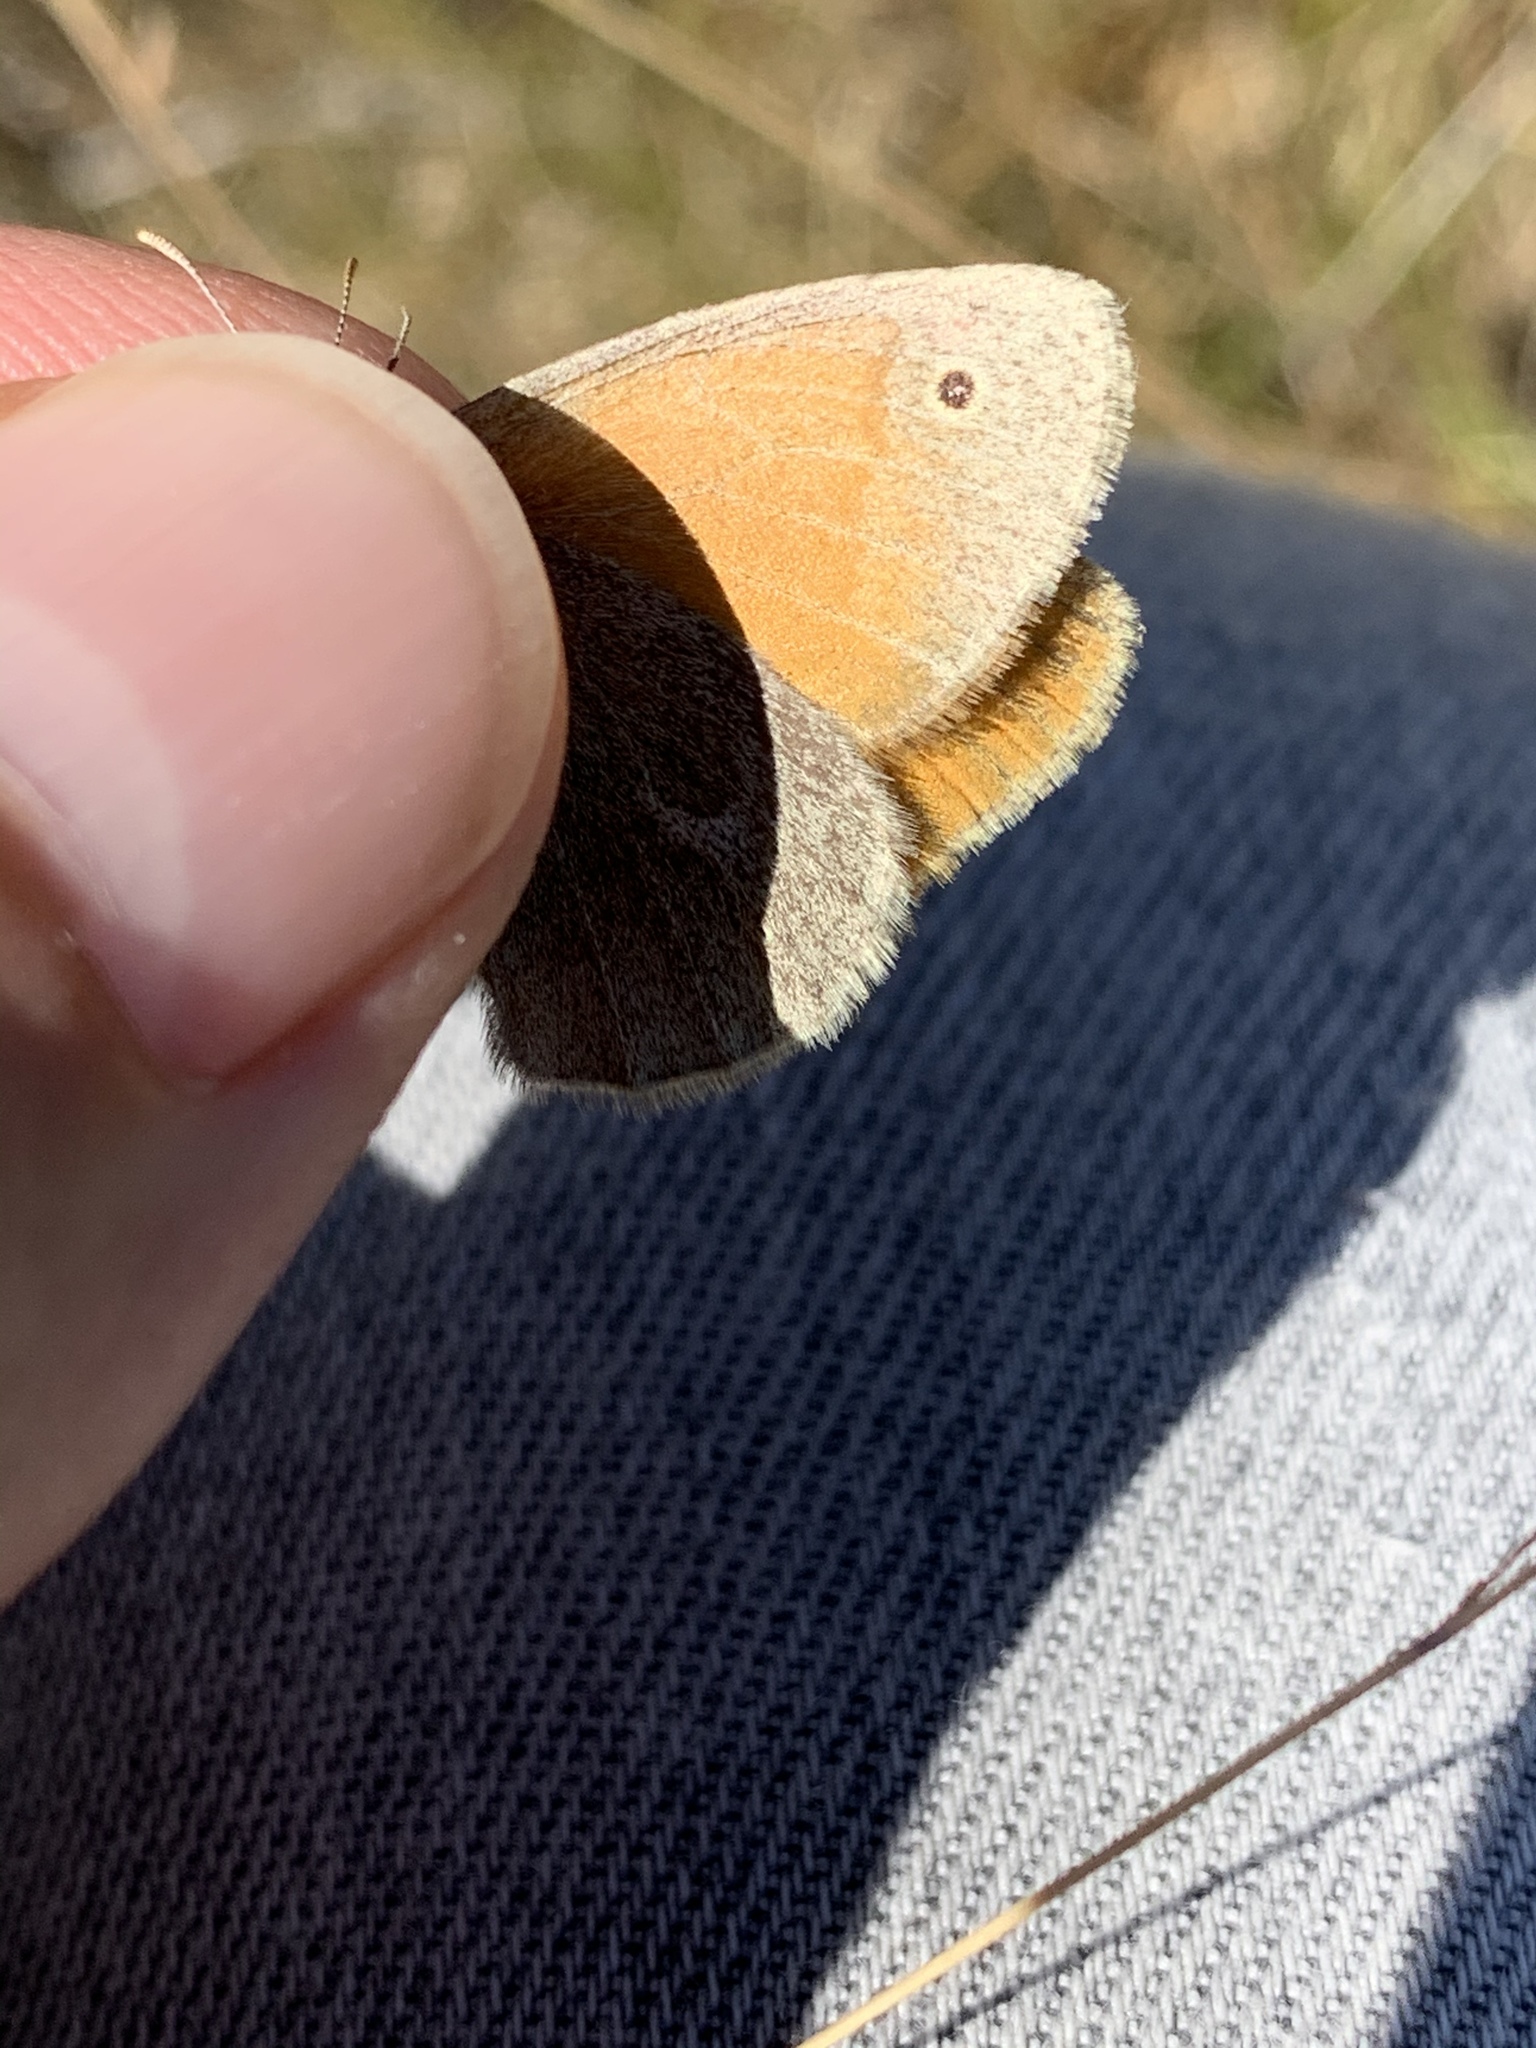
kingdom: Animalia
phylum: Arthropoda
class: Insecta
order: Lepidoptera
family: Nymphalidae
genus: Coenonympha
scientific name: Coenonympha california
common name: Common ringlet
